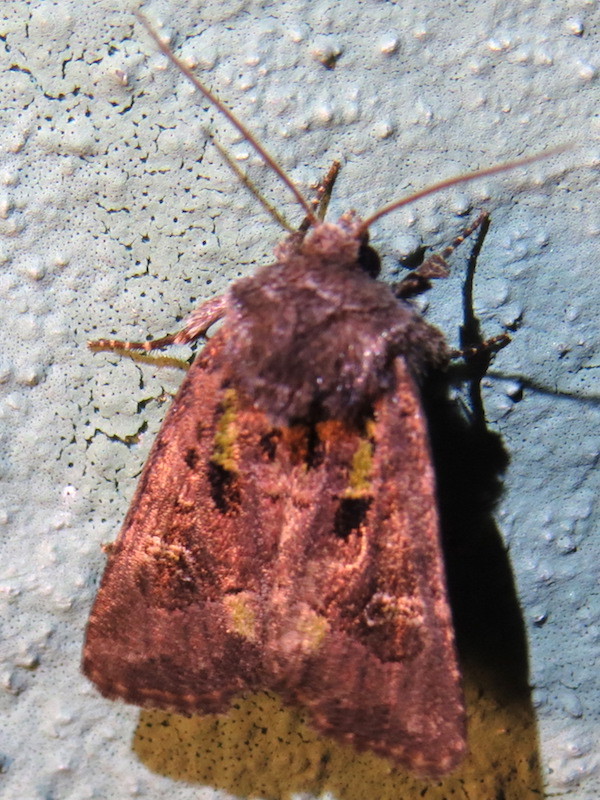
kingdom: Animalia
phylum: Arthropoda
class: Insecta
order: Lepidoptera
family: Noctuidae
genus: Lacinipolia
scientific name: Lacinipolia renigera
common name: Kidney-spotted minor
